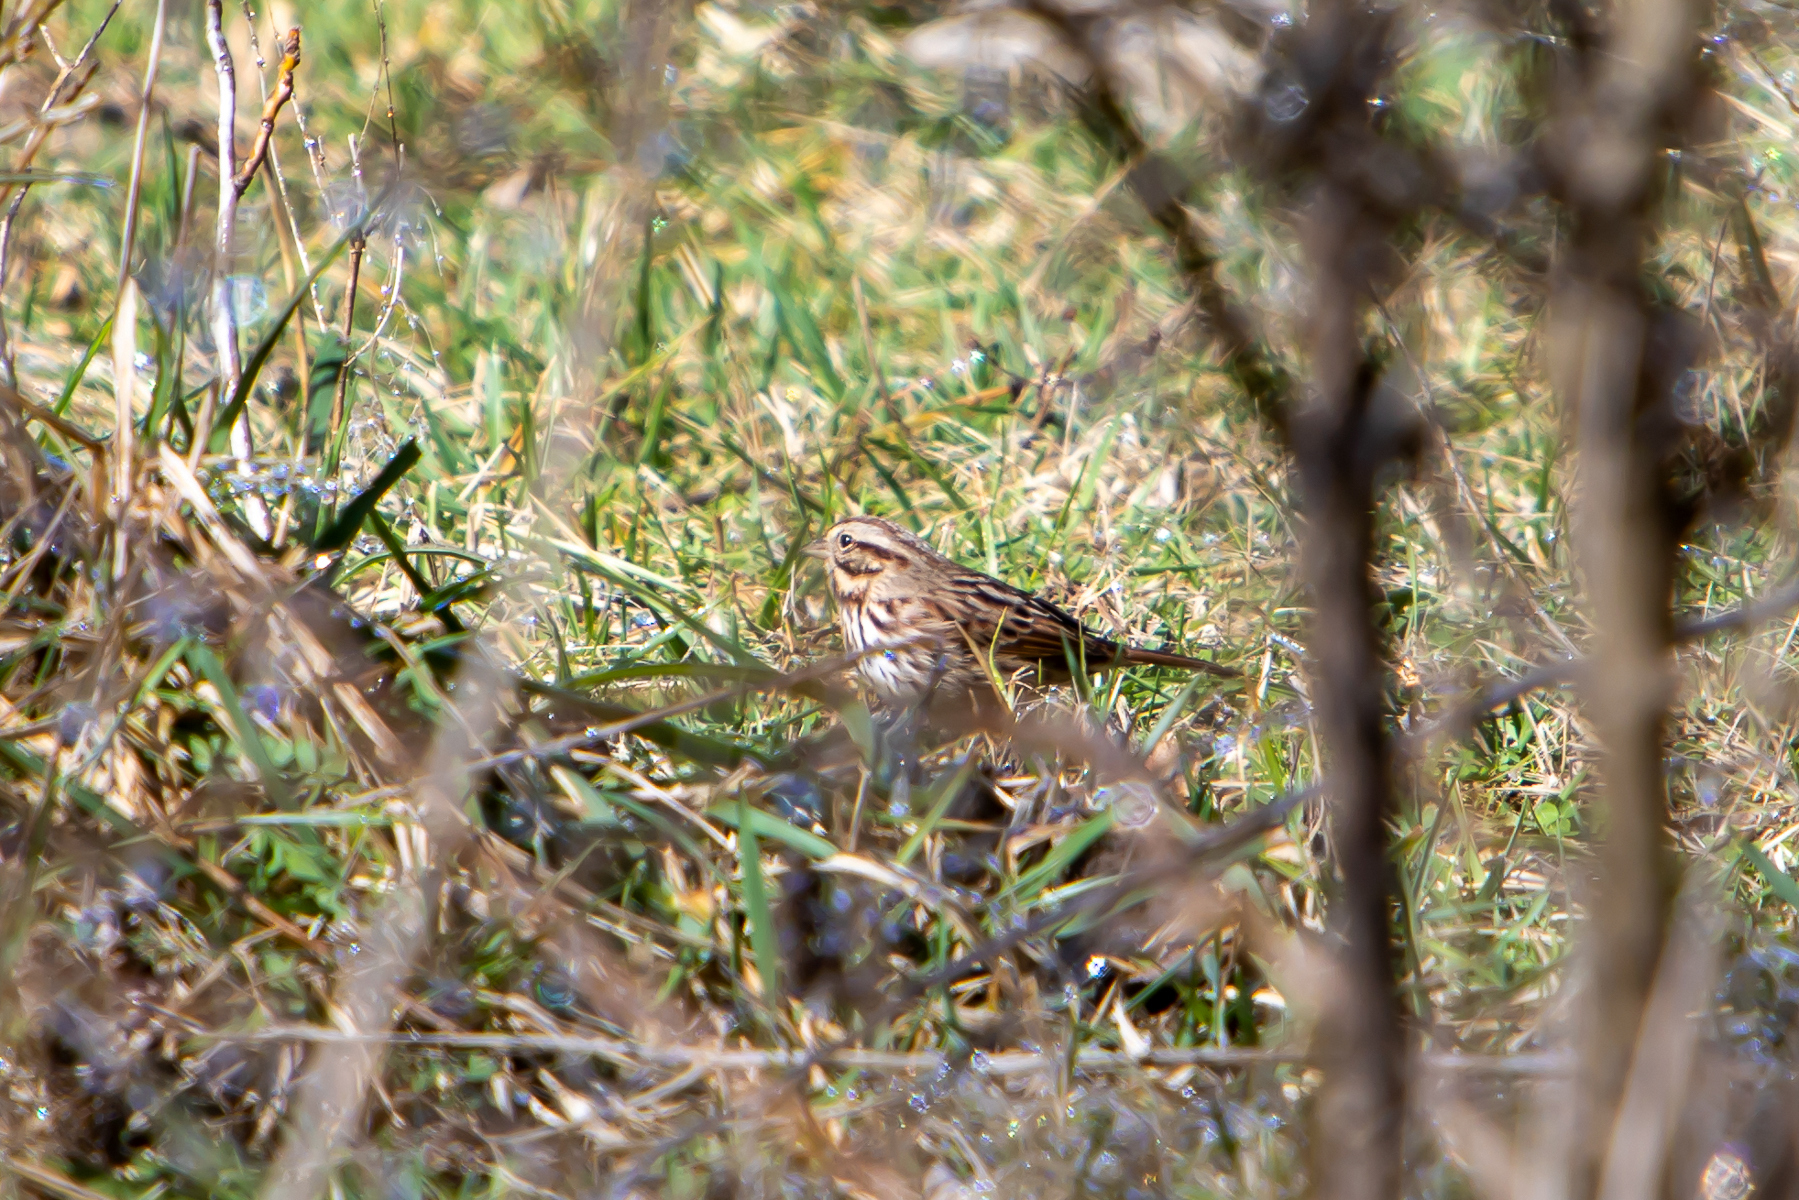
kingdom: Animalia
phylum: Chordata
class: Aves
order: Passeriformes
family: Passerellidae
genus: Melospiza
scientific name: Melospiza melodia
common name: Song sparrow
